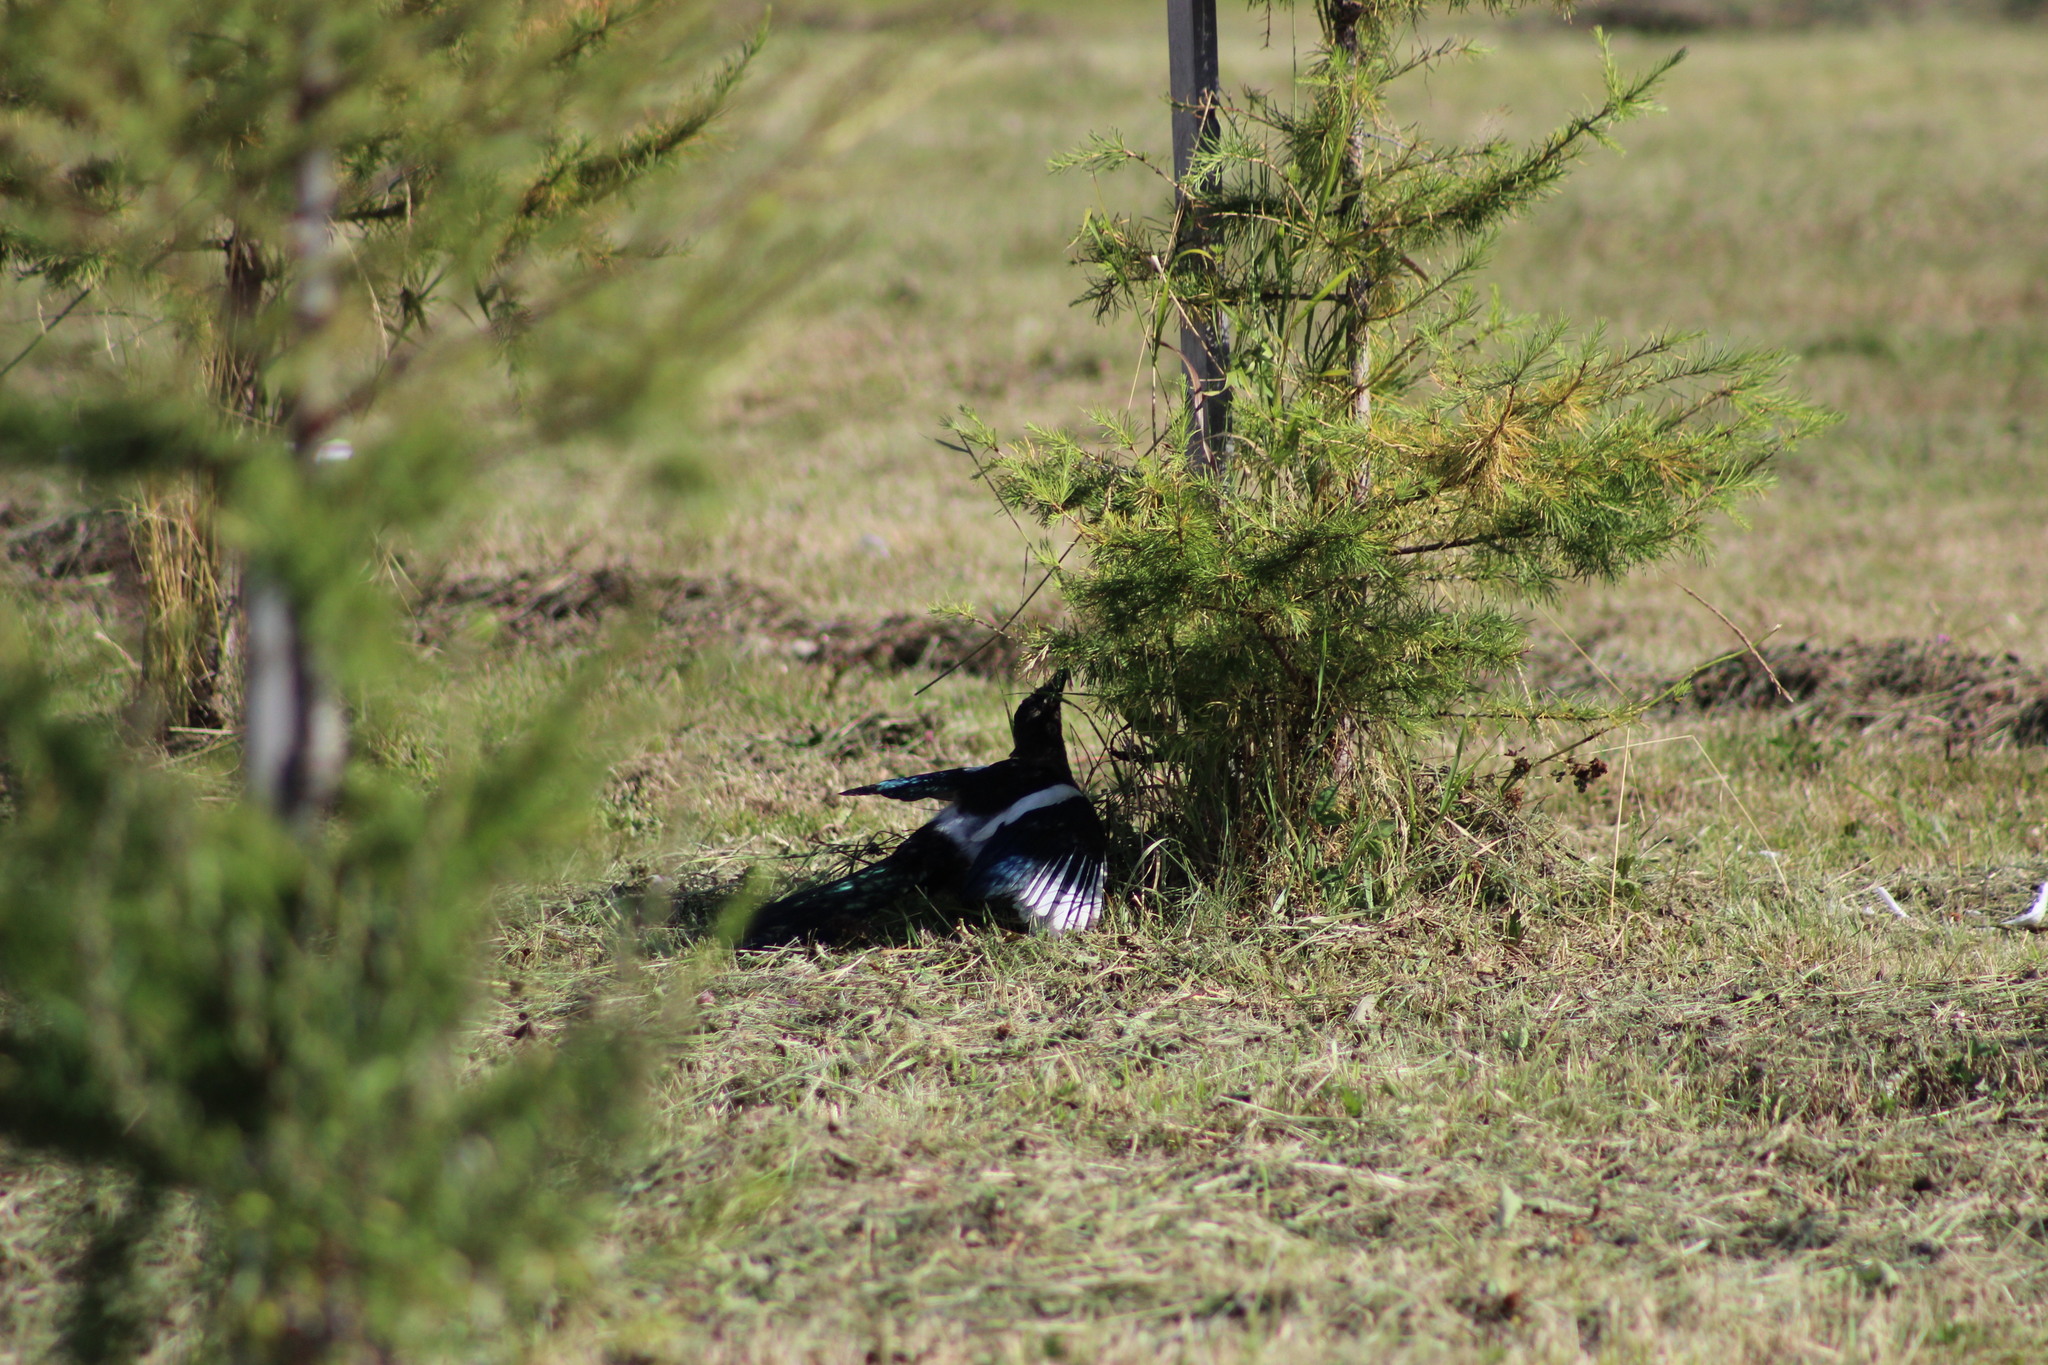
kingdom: Animalia
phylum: Chordata
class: Aves
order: Passeriformes
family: Corvidae
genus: Pica
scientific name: Pica pica
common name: Eurasian magpie
